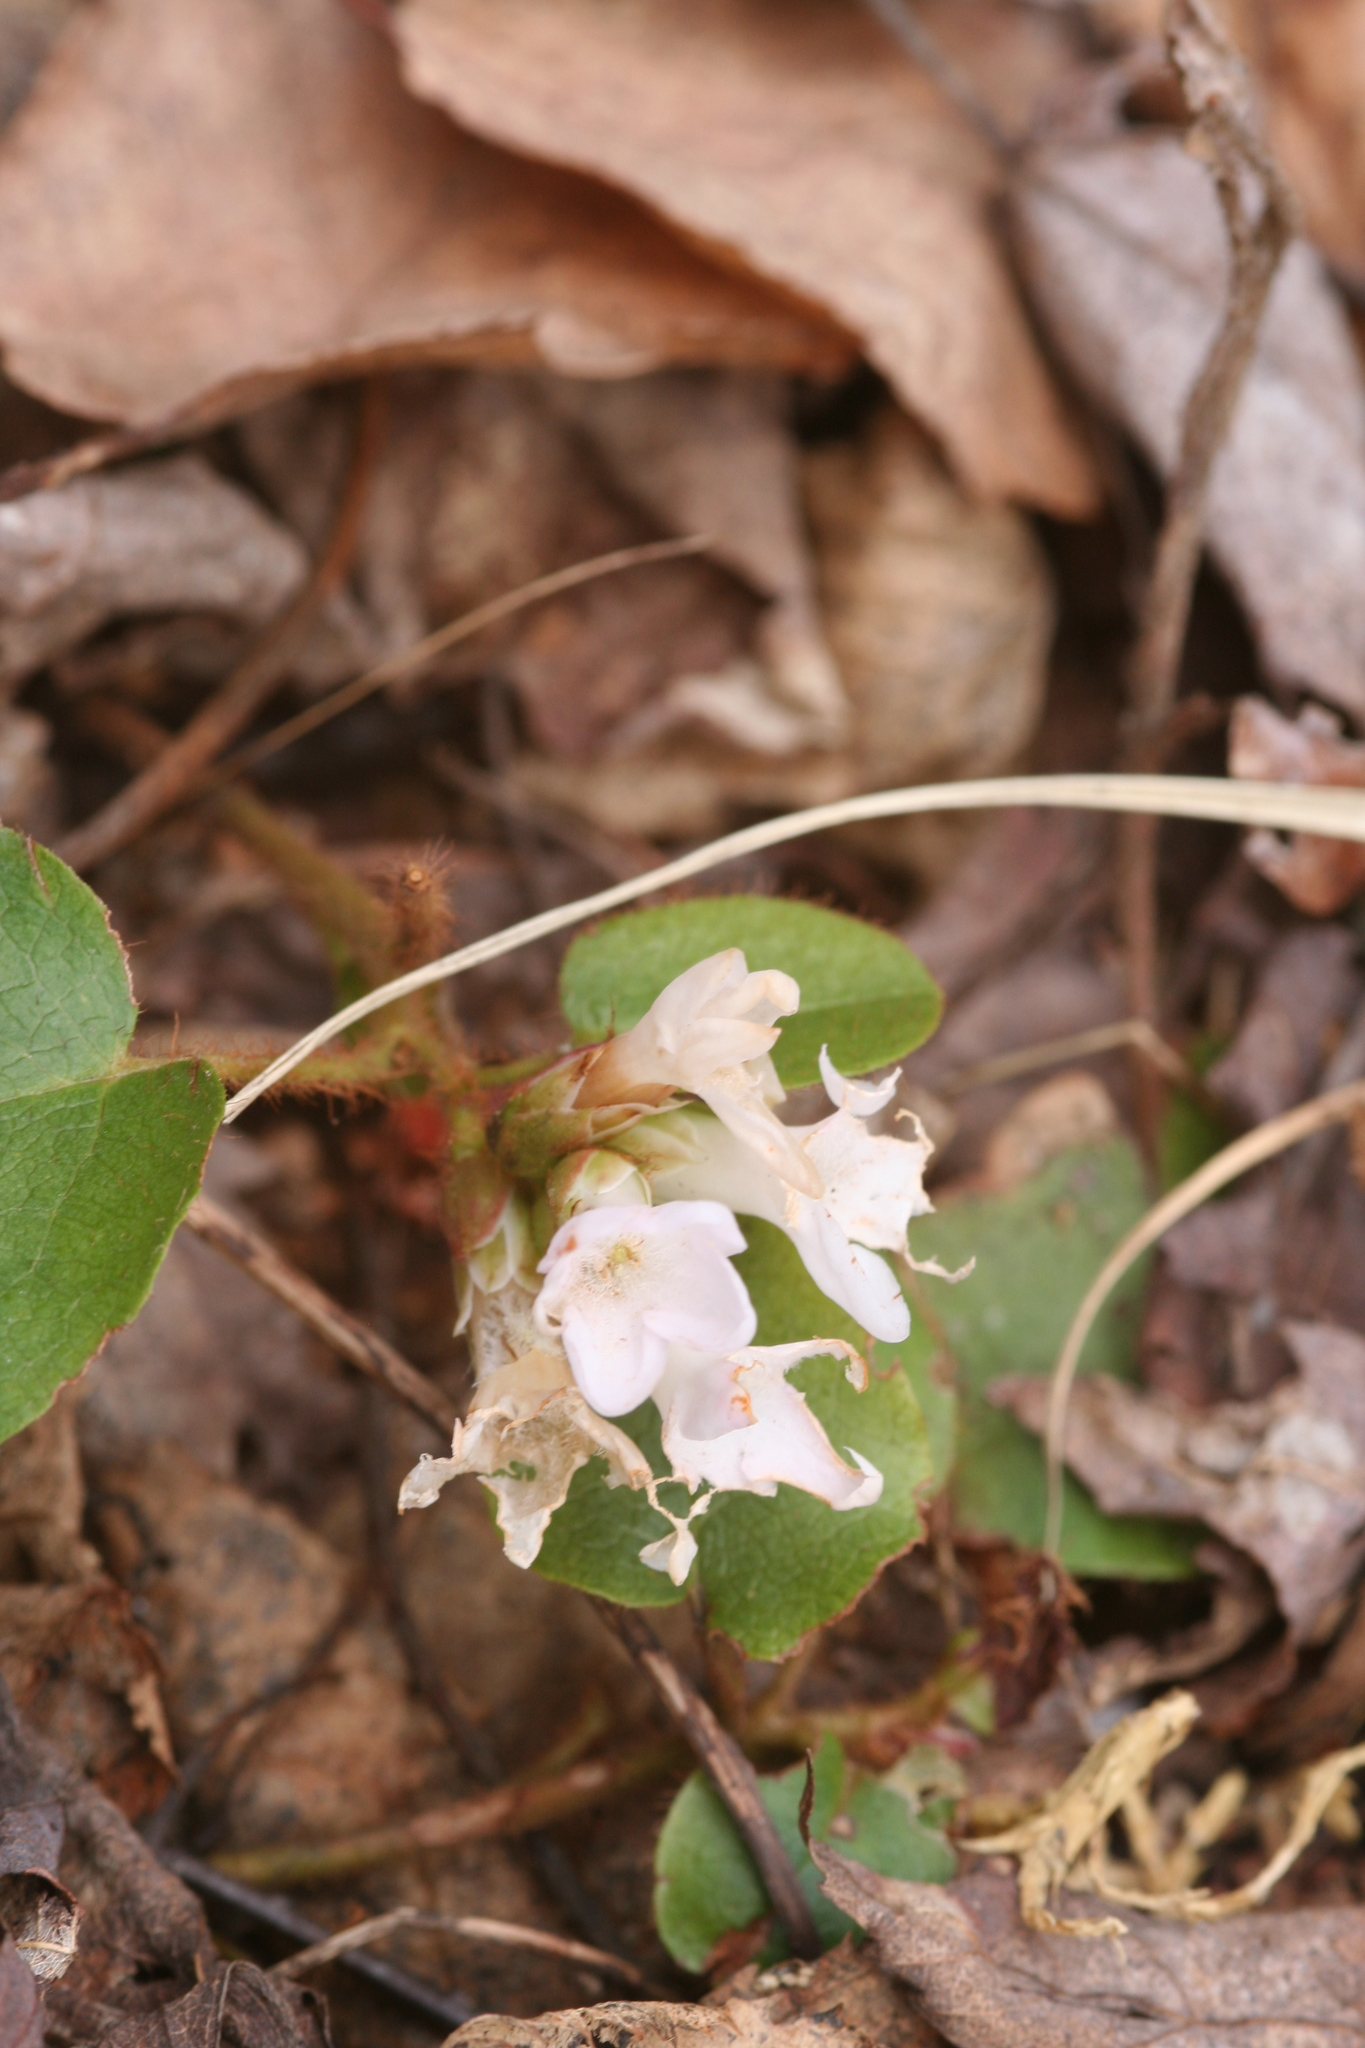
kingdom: Plantae
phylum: Tracheophyta
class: Magnoliopsida
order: Ericales
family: Ericaceae
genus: Epigaea
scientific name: Epigaea repens
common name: Gravelroot
